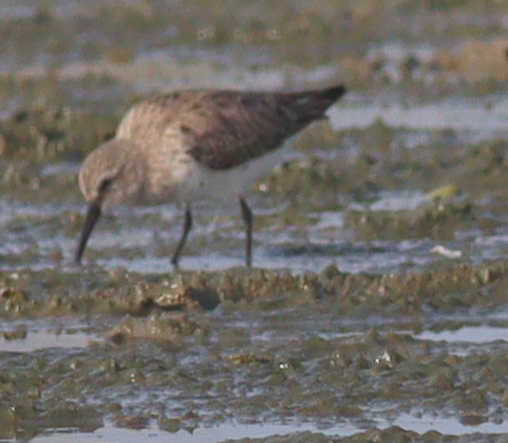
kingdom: Animalia
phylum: Chordata
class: Aves
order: Charadriiformes
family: Scolopacidae
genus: Calidris
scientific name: Calidris alpina
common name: Dunlin
